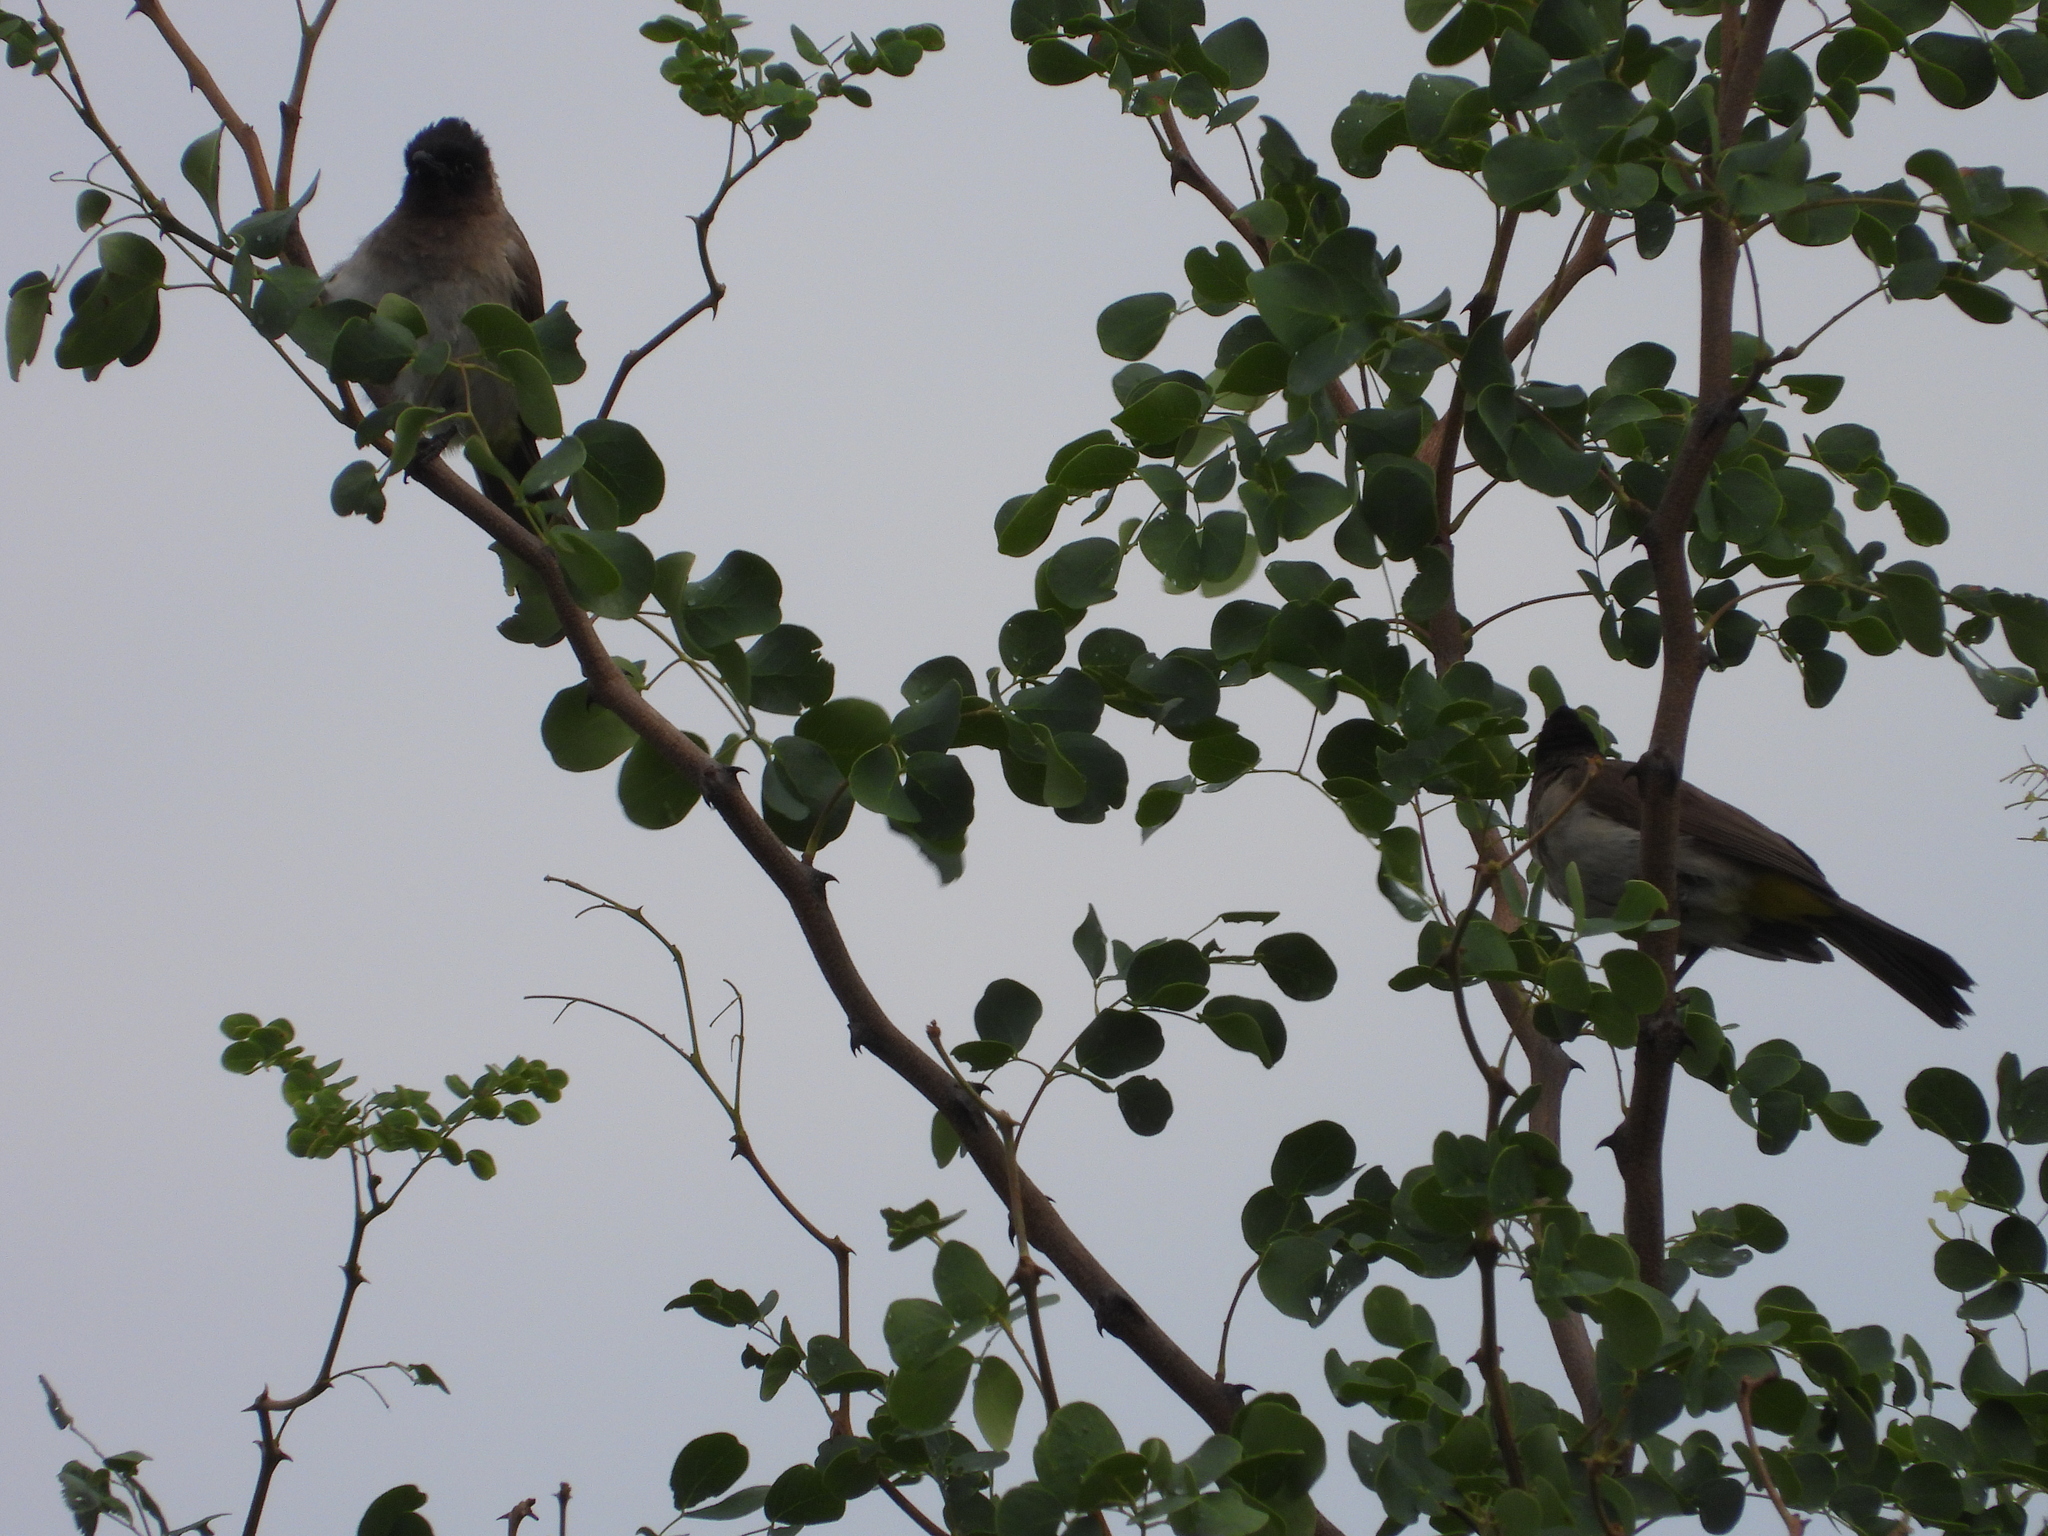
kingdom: Animalia
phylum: Chordata
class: Aves
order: Passeriformes
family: Pycnonotidae
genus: Pycnonotus
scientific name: Pycnonotus barbatus
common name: Common bulbul
